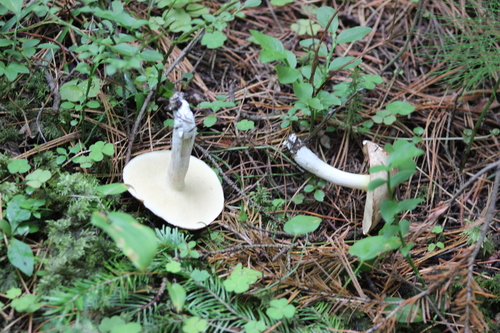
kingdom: Fungi
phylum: Basidiomycota
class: Agaricomycetes
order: Boletales
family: Suillaceae
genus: Suillus
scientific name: Suillus placidus
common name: Slippery white bolete
